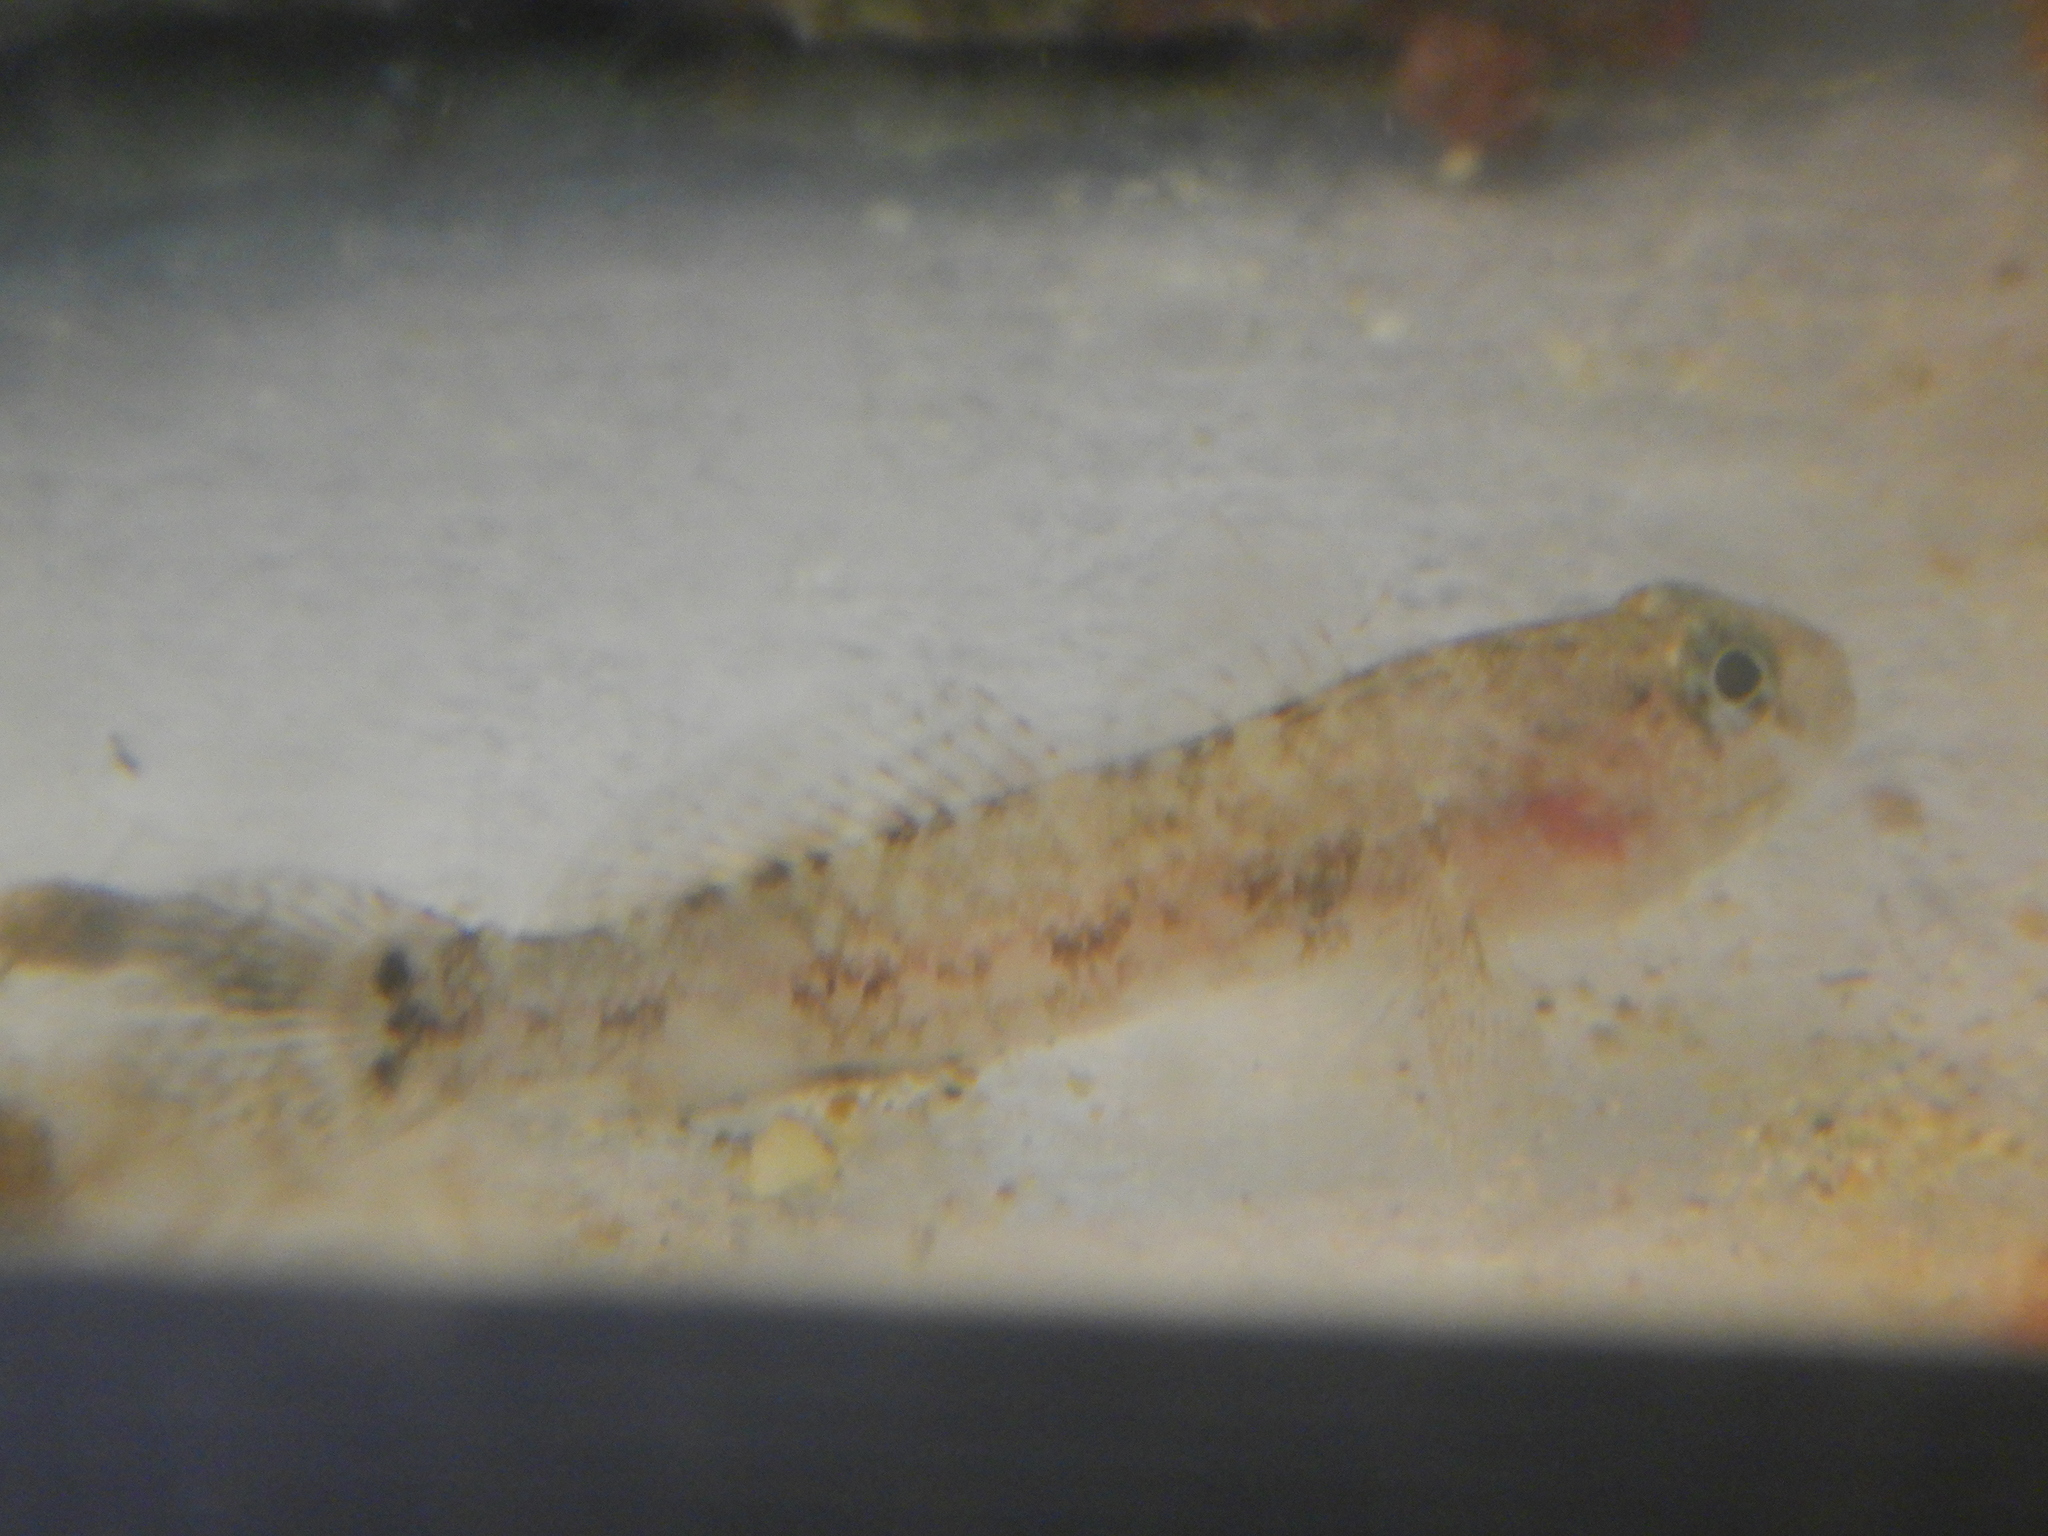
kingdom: Animalia
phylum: Chordata
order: Perciformes
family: Gobiidae
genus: Gobius
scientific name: Gobius paganellus
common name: Rock goby
